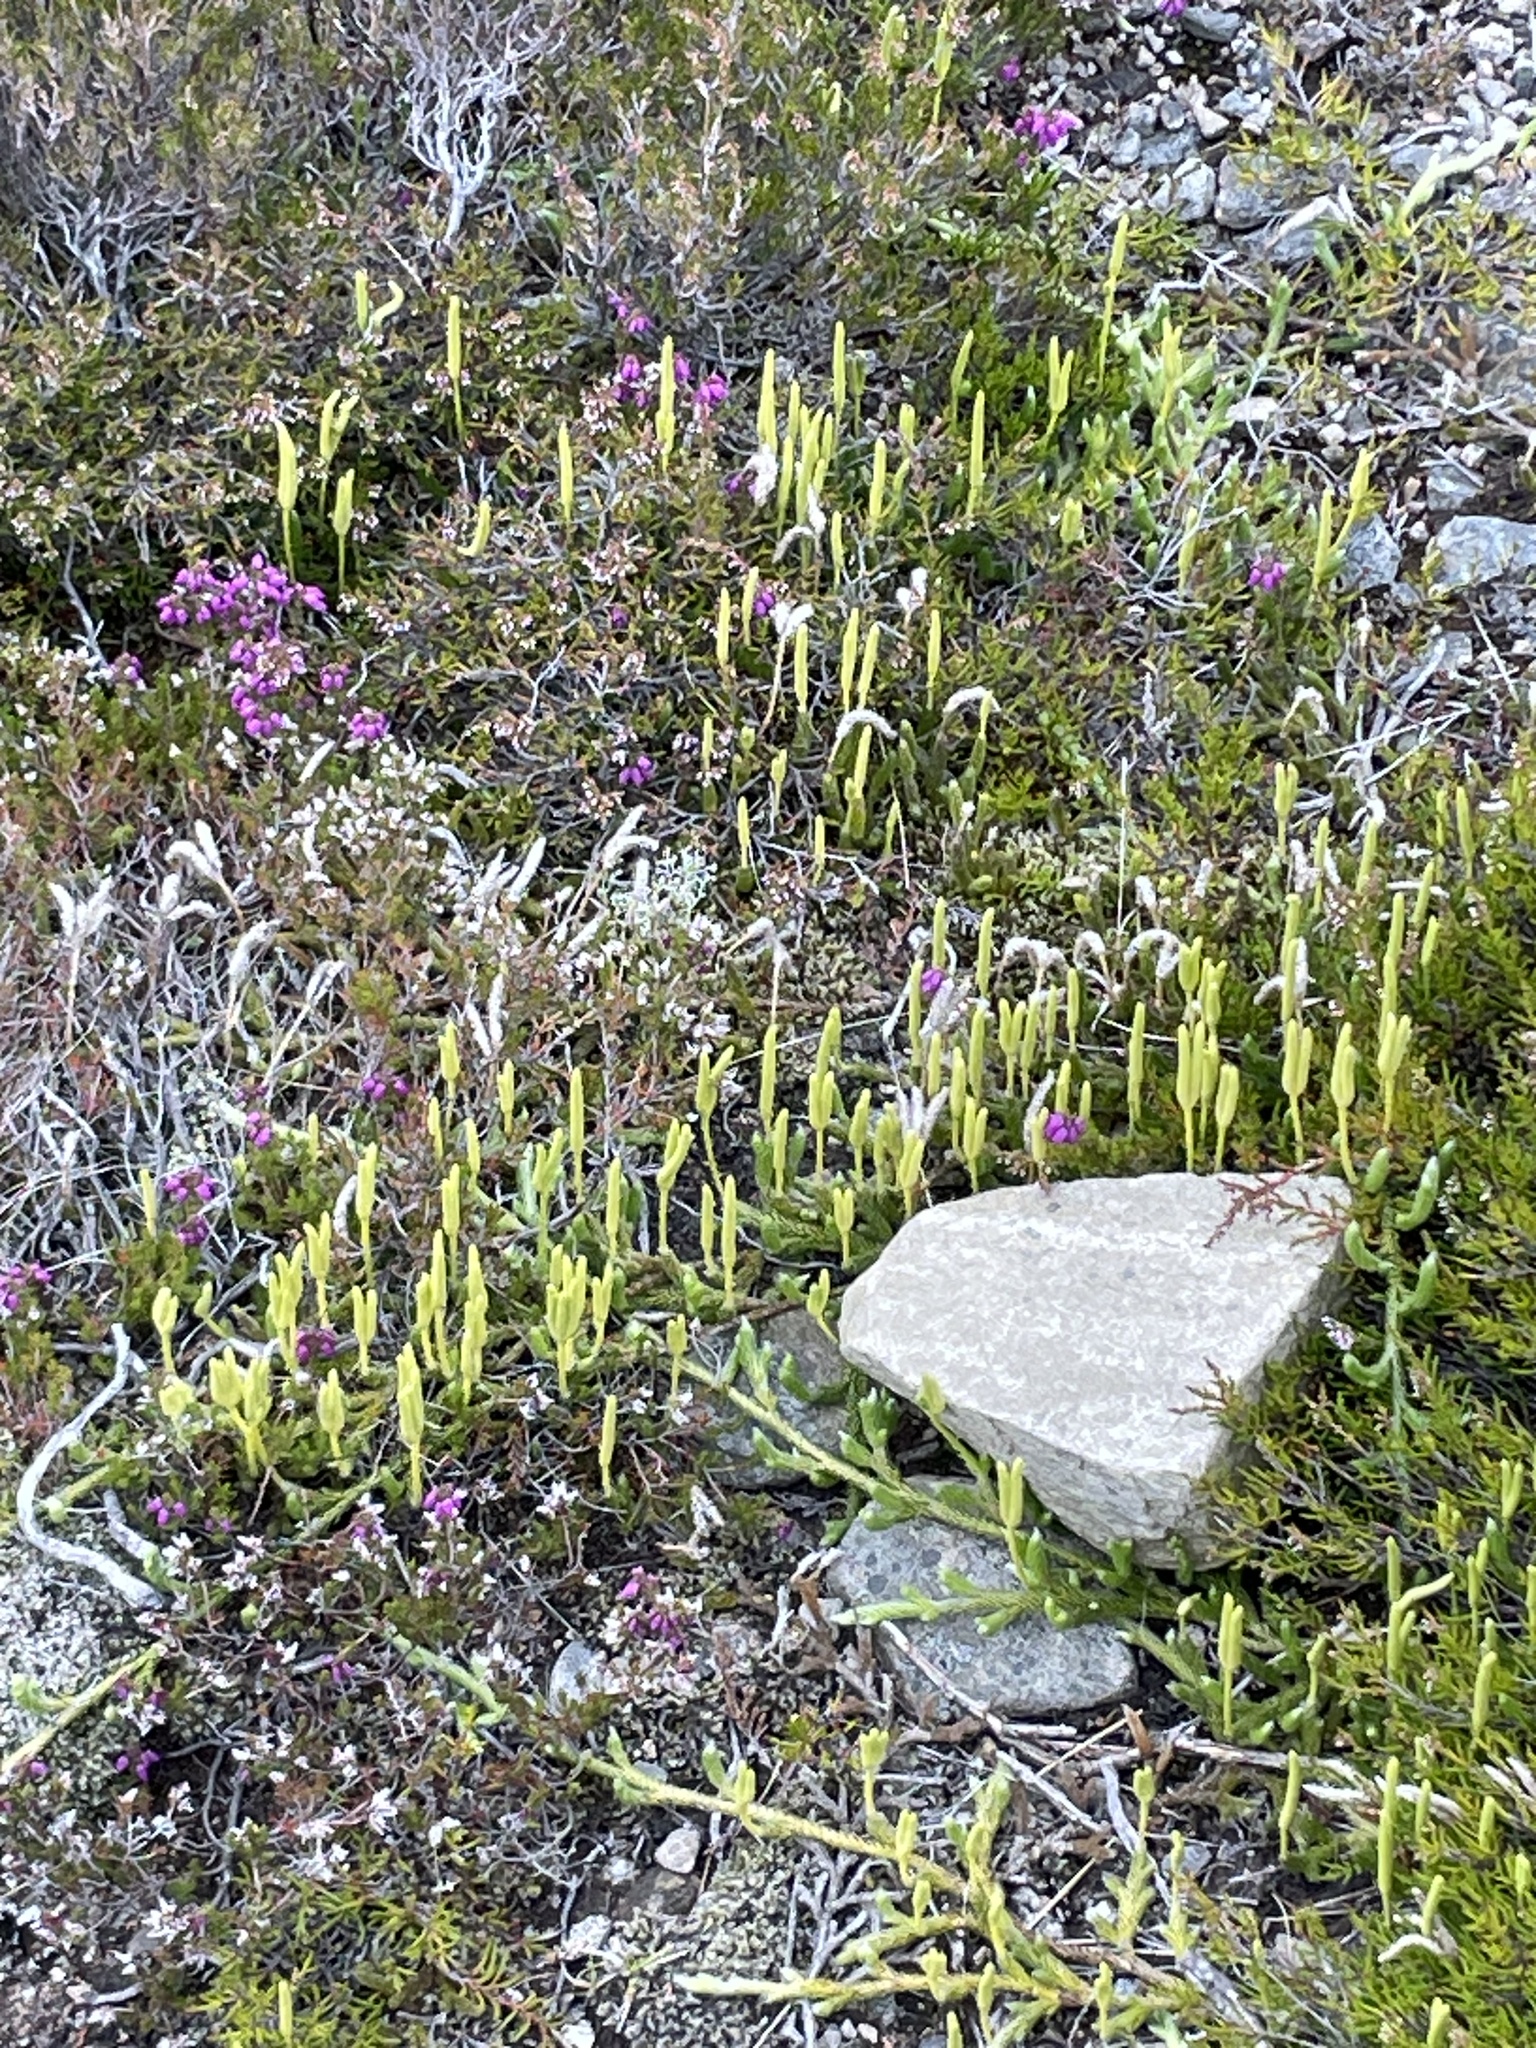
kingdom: Plantae
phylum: Tracheophyta
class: Lycopodiopsida
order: Lycopodiales
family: Lycopodiaceae
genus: Lycopodium
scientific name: Lycopodium clavatum
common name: Stag's-horn clubmoss
